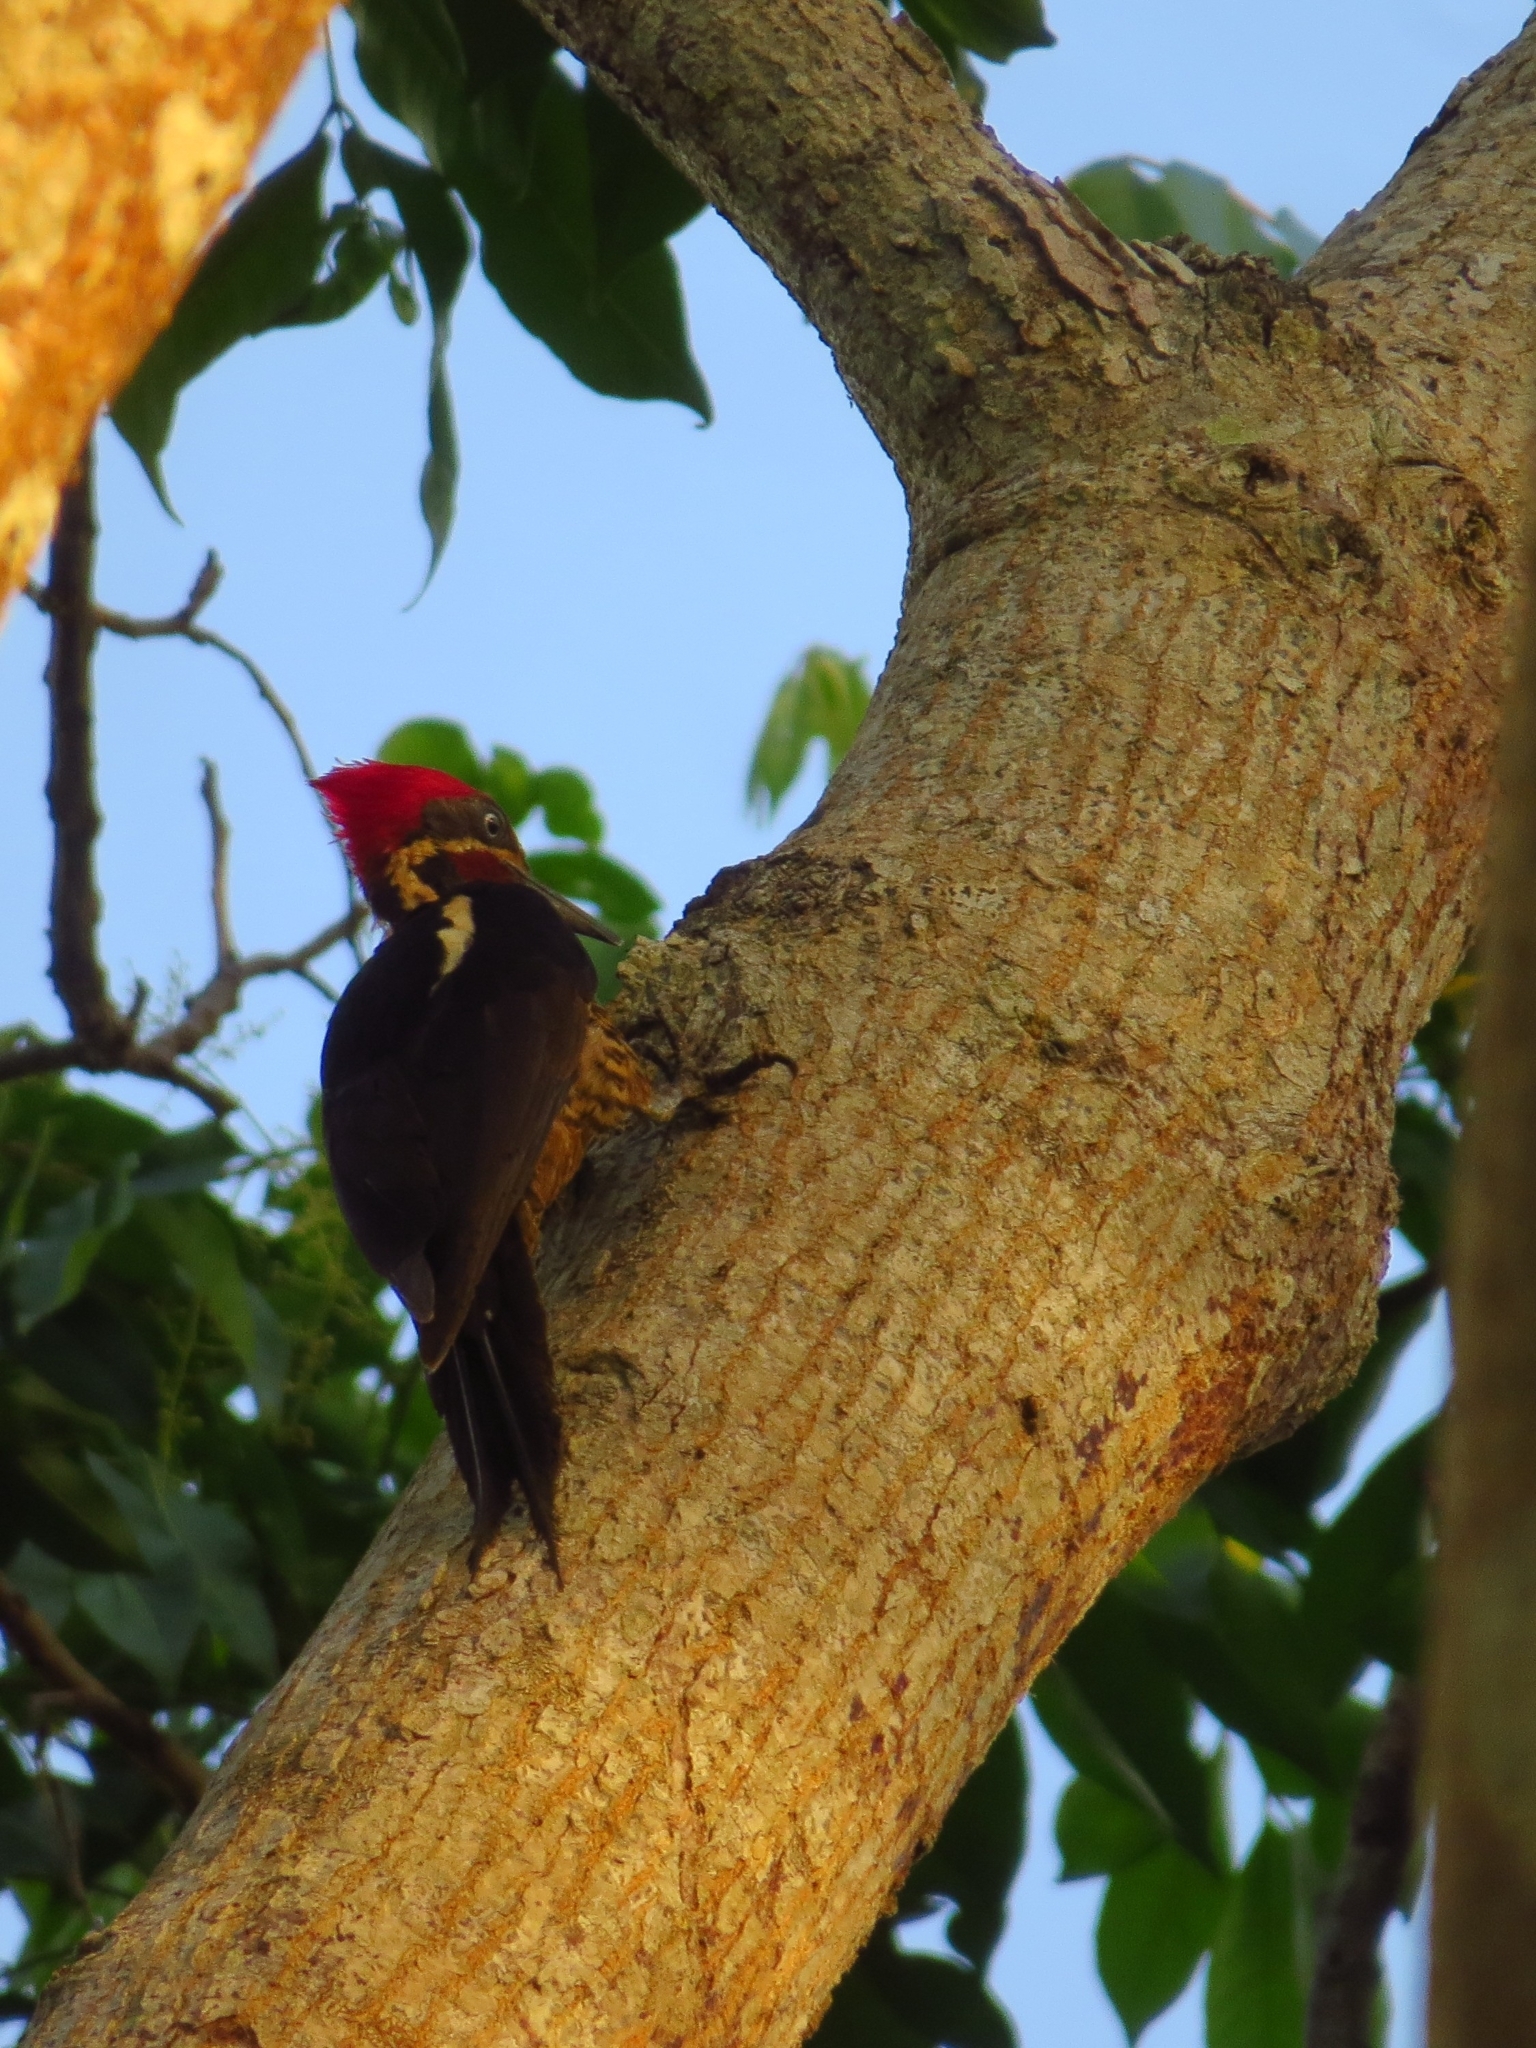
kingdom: Animalia
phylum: Chordata
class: Aves
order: Piciformes
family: Picidae
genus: Dryocopus
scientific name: Dryocopus lineatus
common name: Lineated woodpecker
